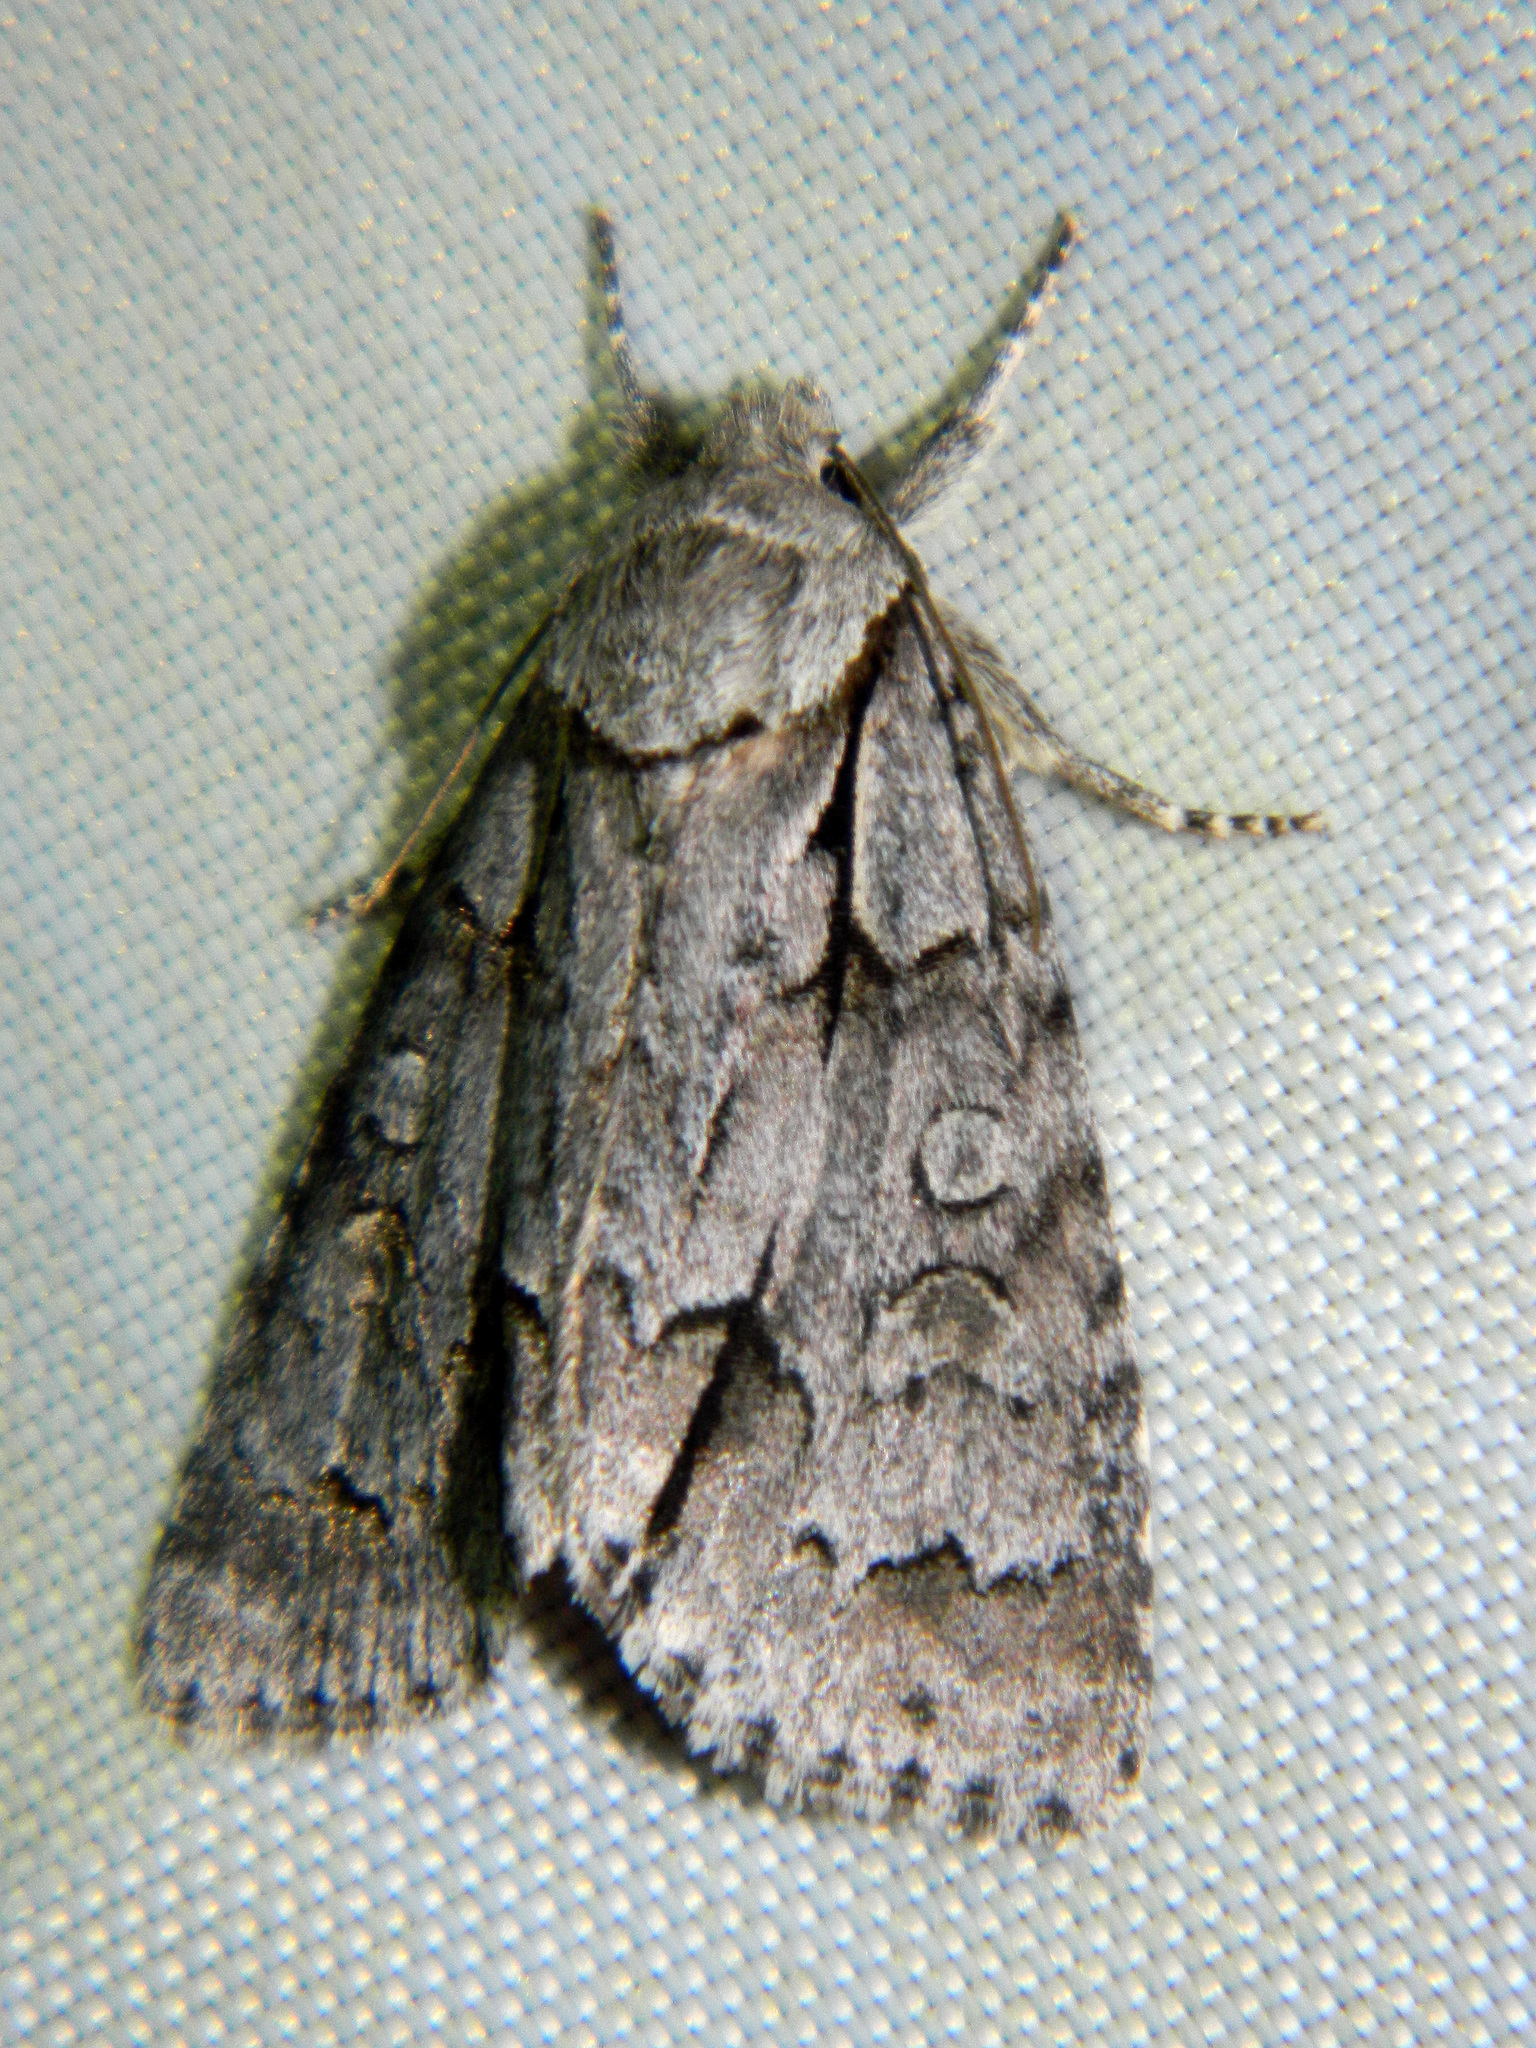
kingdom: Animalia
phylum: Arthropoda
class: Insecta
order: Lepidoptera
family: Noctuidae
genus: Acronicta
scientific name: Acronicta grisea
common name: Gray dagger
